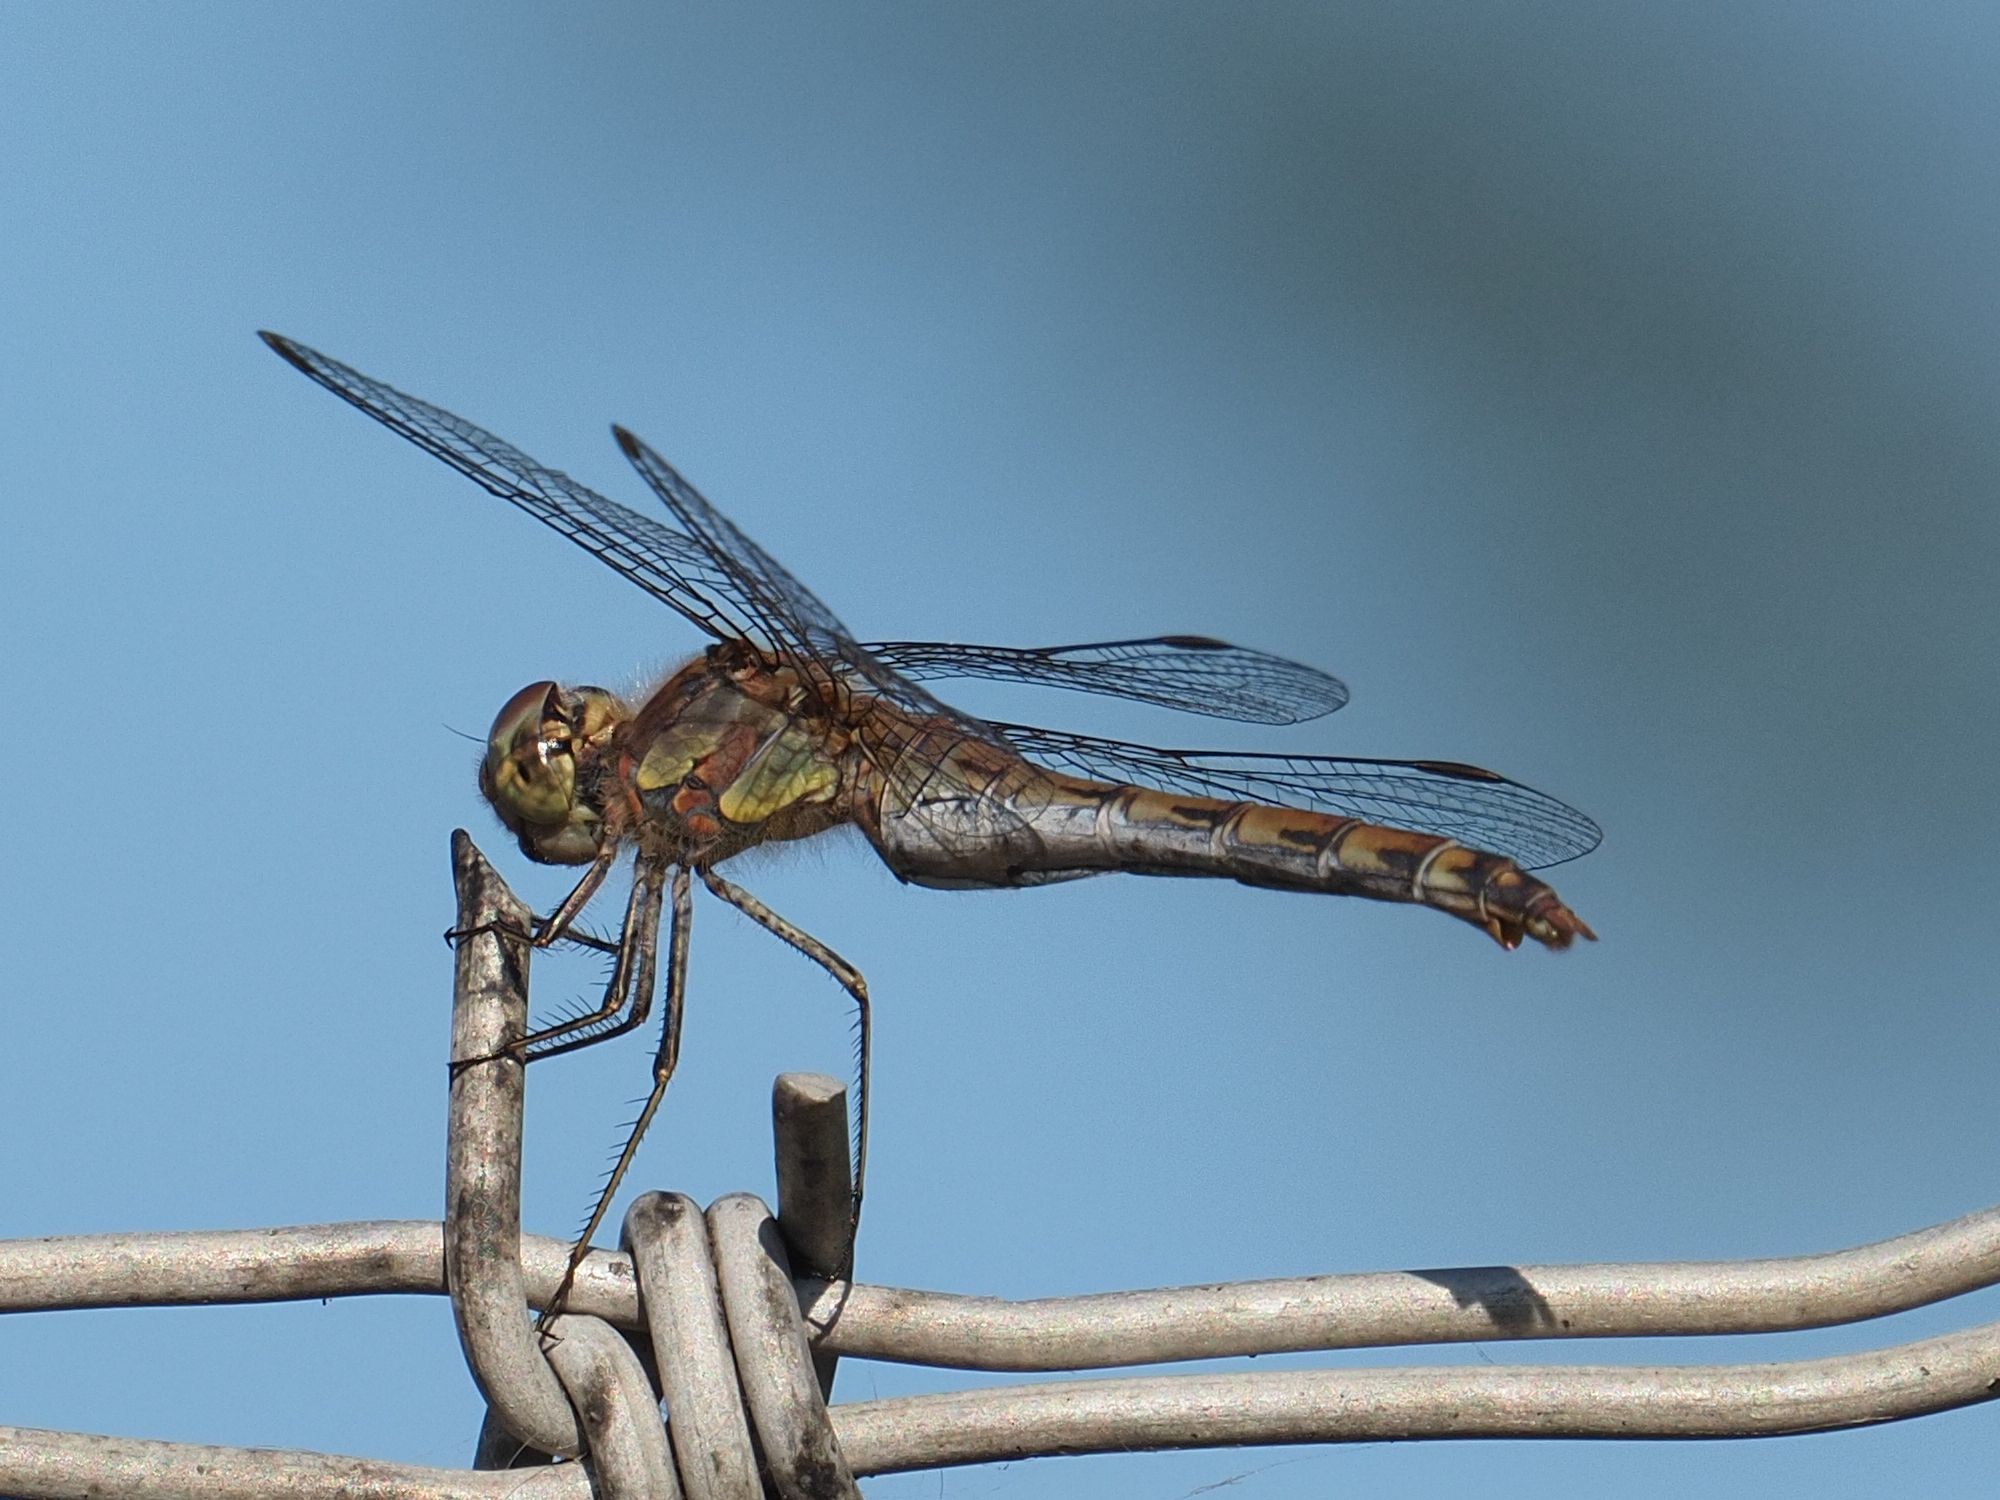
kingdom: Animalia
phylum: Arthropoda
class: Insecta
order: Odonata
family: Libellulidae
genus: Sympetrum
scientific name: Sympetrum striolatum
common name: Common darter
